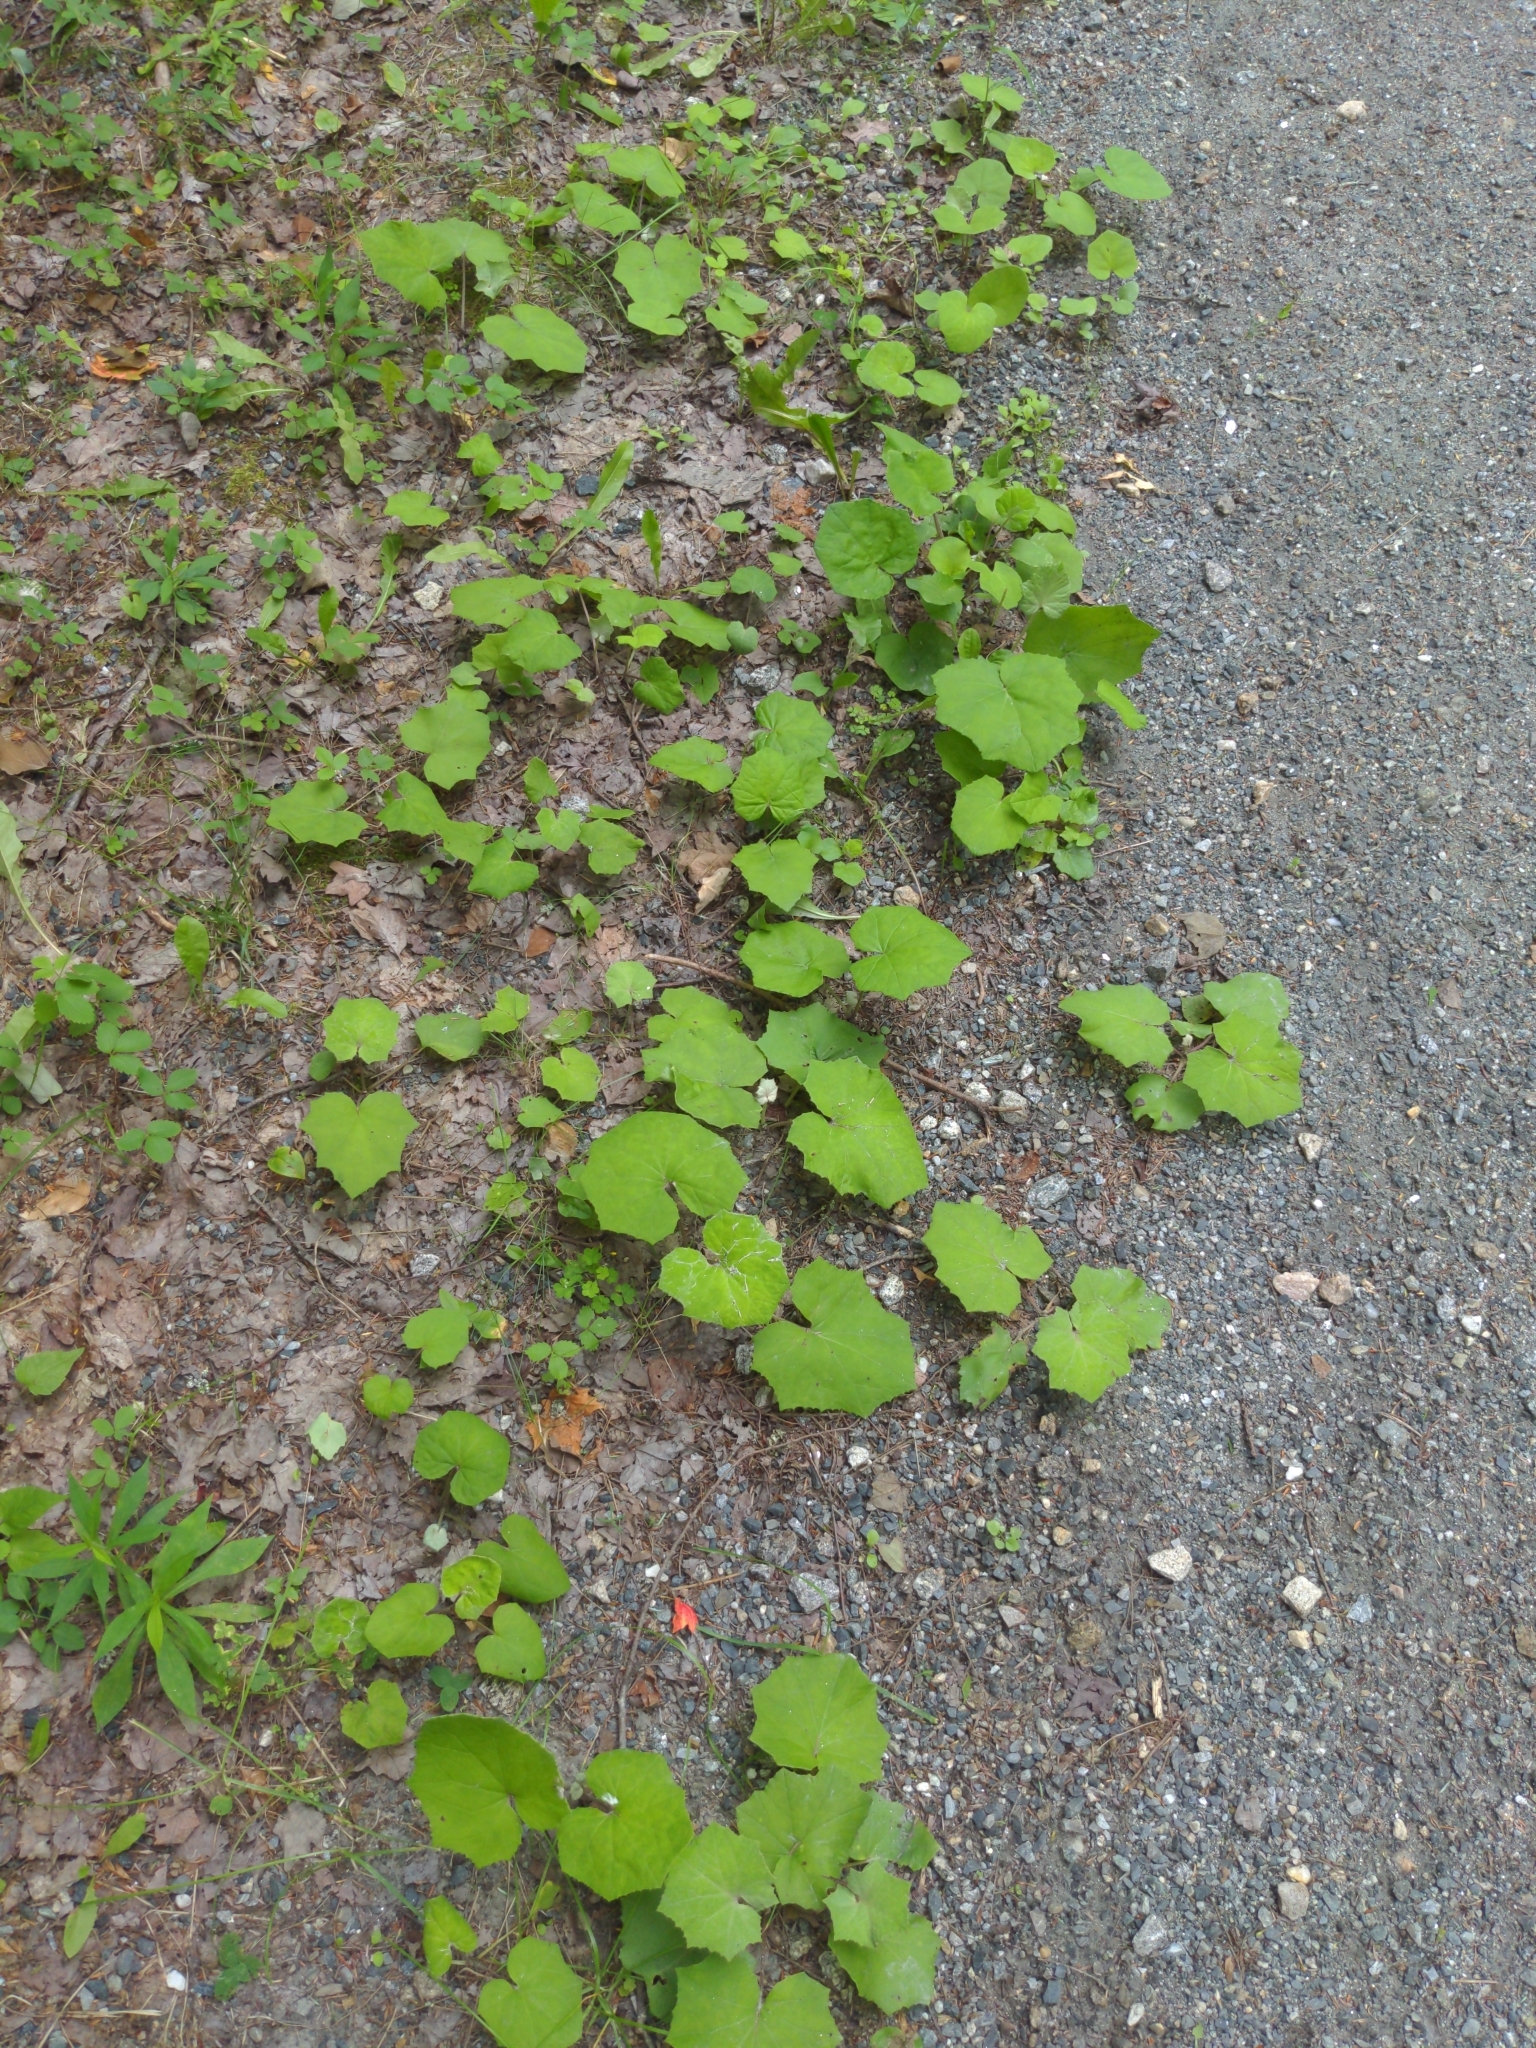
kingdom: Plantae
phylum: Tracheophyta
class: Magnoliopsida
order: Asterales
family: Asteraceae
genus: Tussilago
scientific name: Tussilago farfara
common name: Coltsfoot
